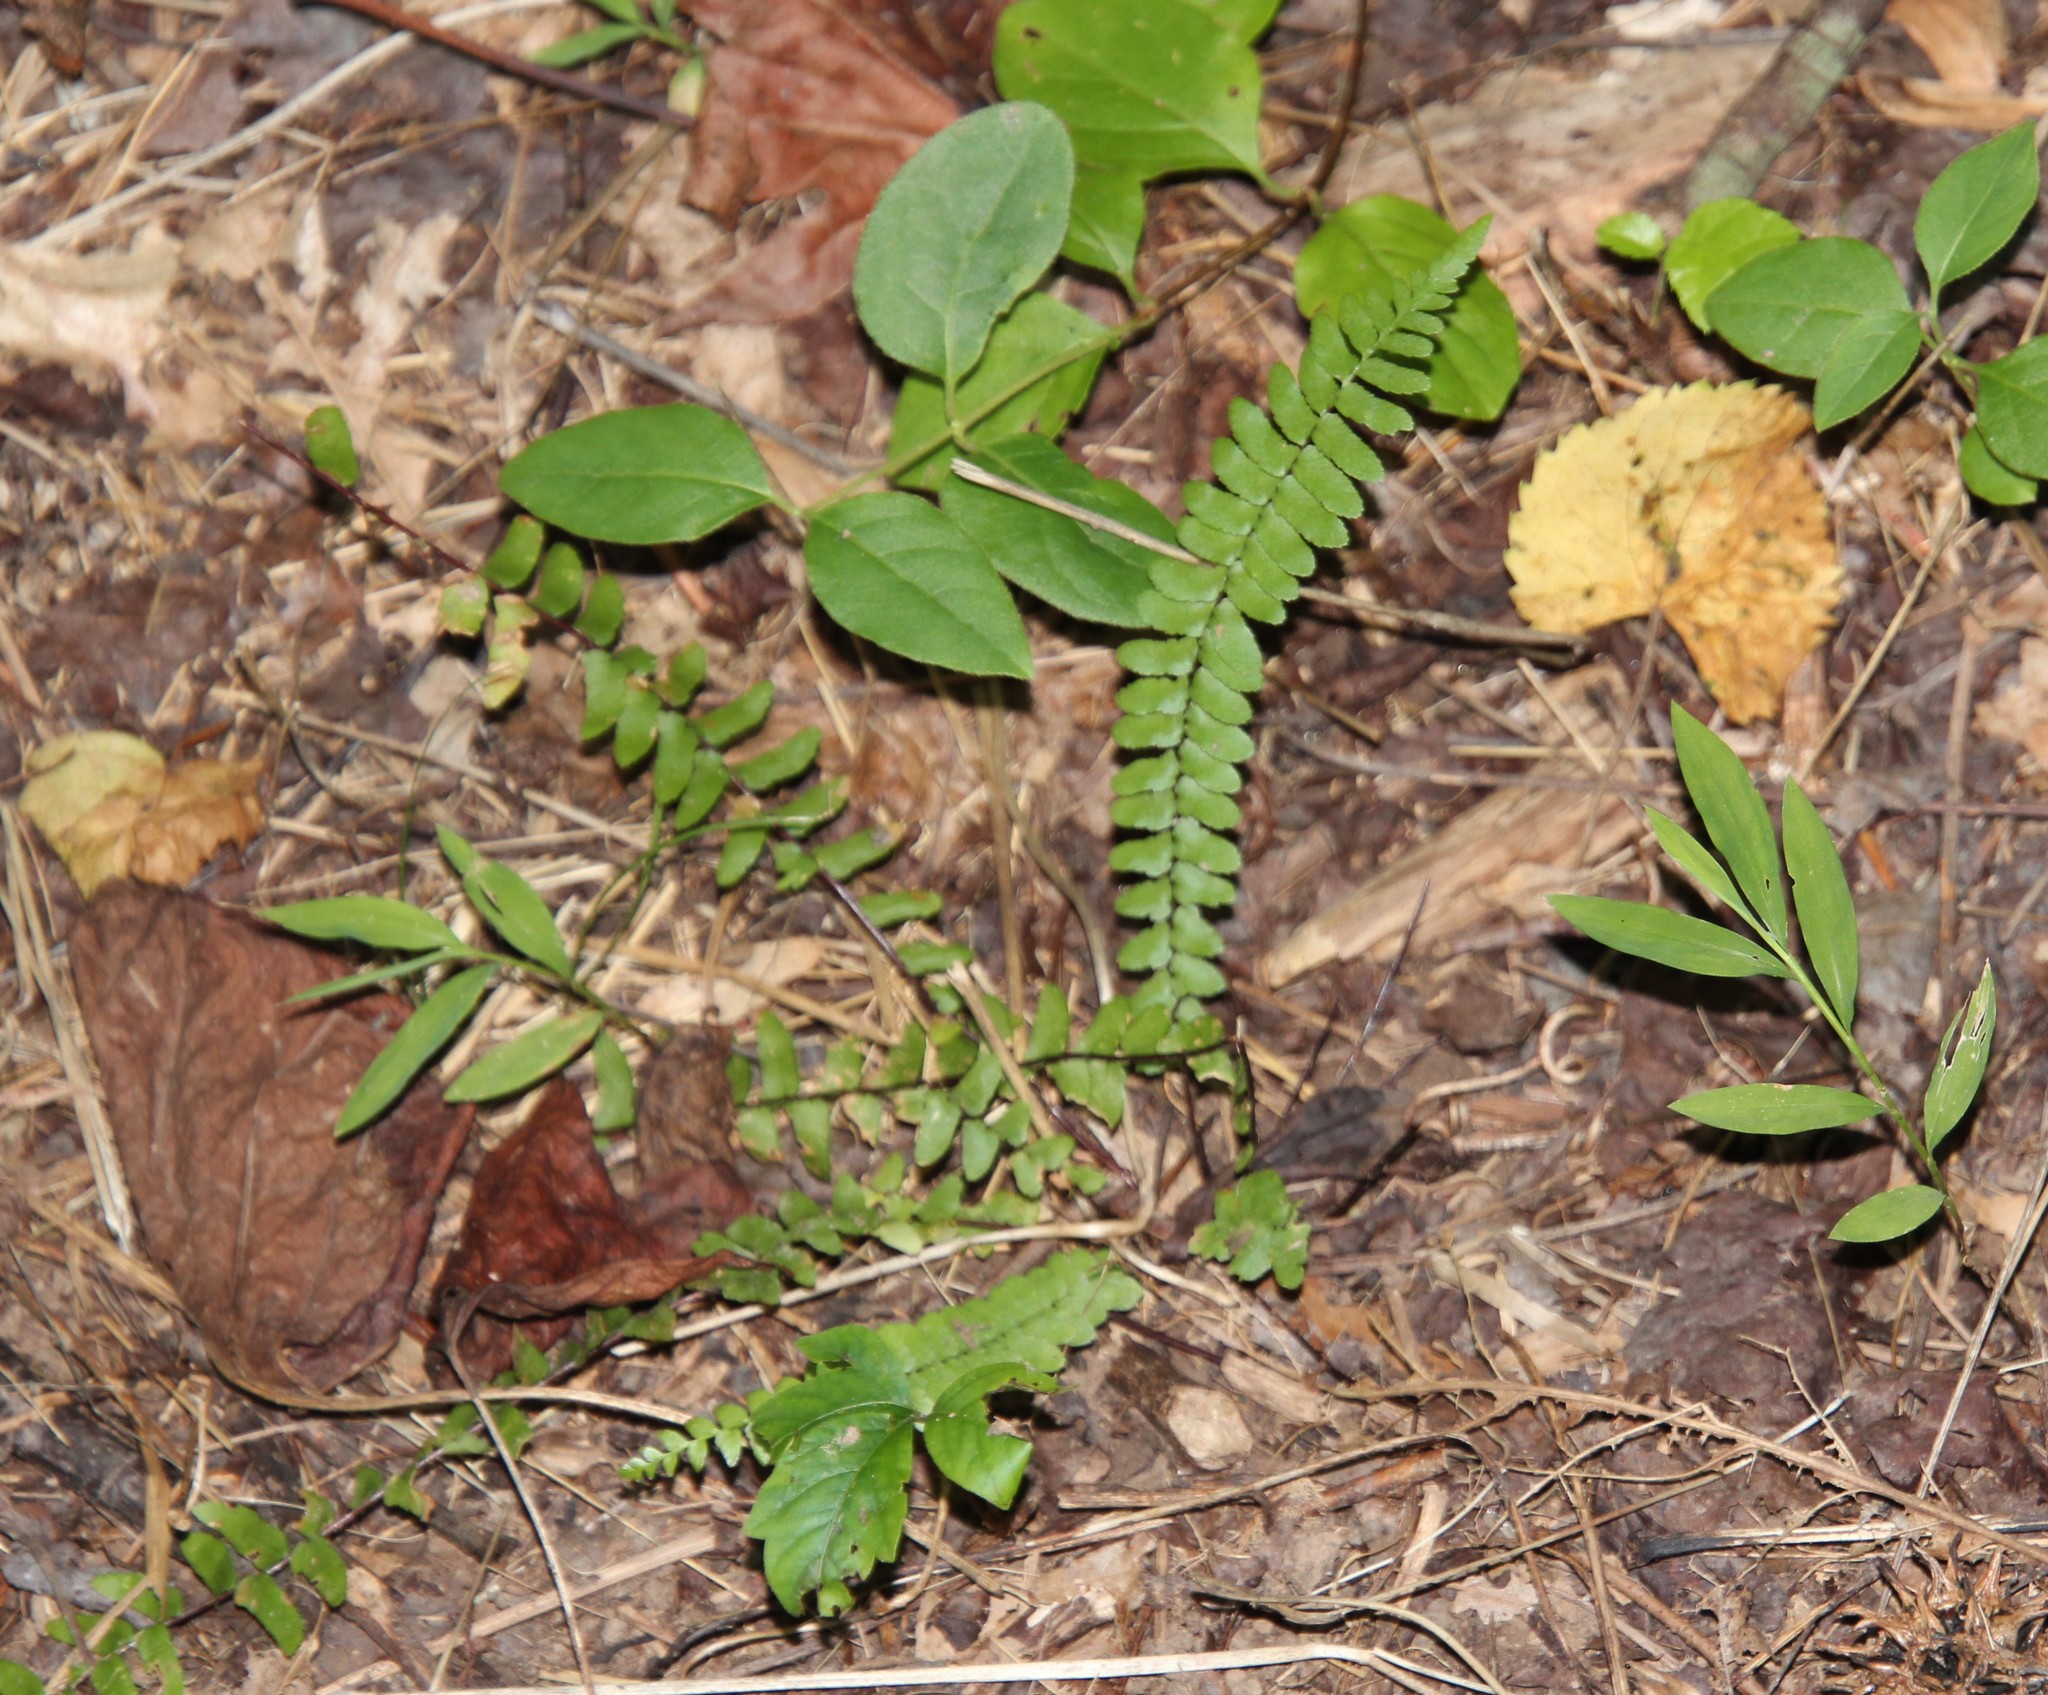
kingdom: Plantae
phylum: Tracheophyta
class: Polypodiopsida
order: Polypodiales
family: Aspleniaceae
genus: Asplenium
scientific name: Asplenium platyneuron
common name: Ebony spleenwort
